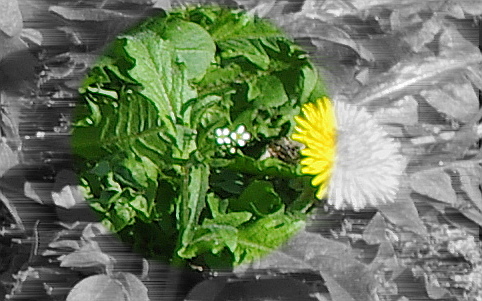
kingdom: Plantae
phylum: Tracheophyta
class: Magnoliopsida
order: Brassicales
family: Brassicaceae
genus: Capsella
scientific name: Capsella bursa-pastoris
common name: Shepherd's purse
